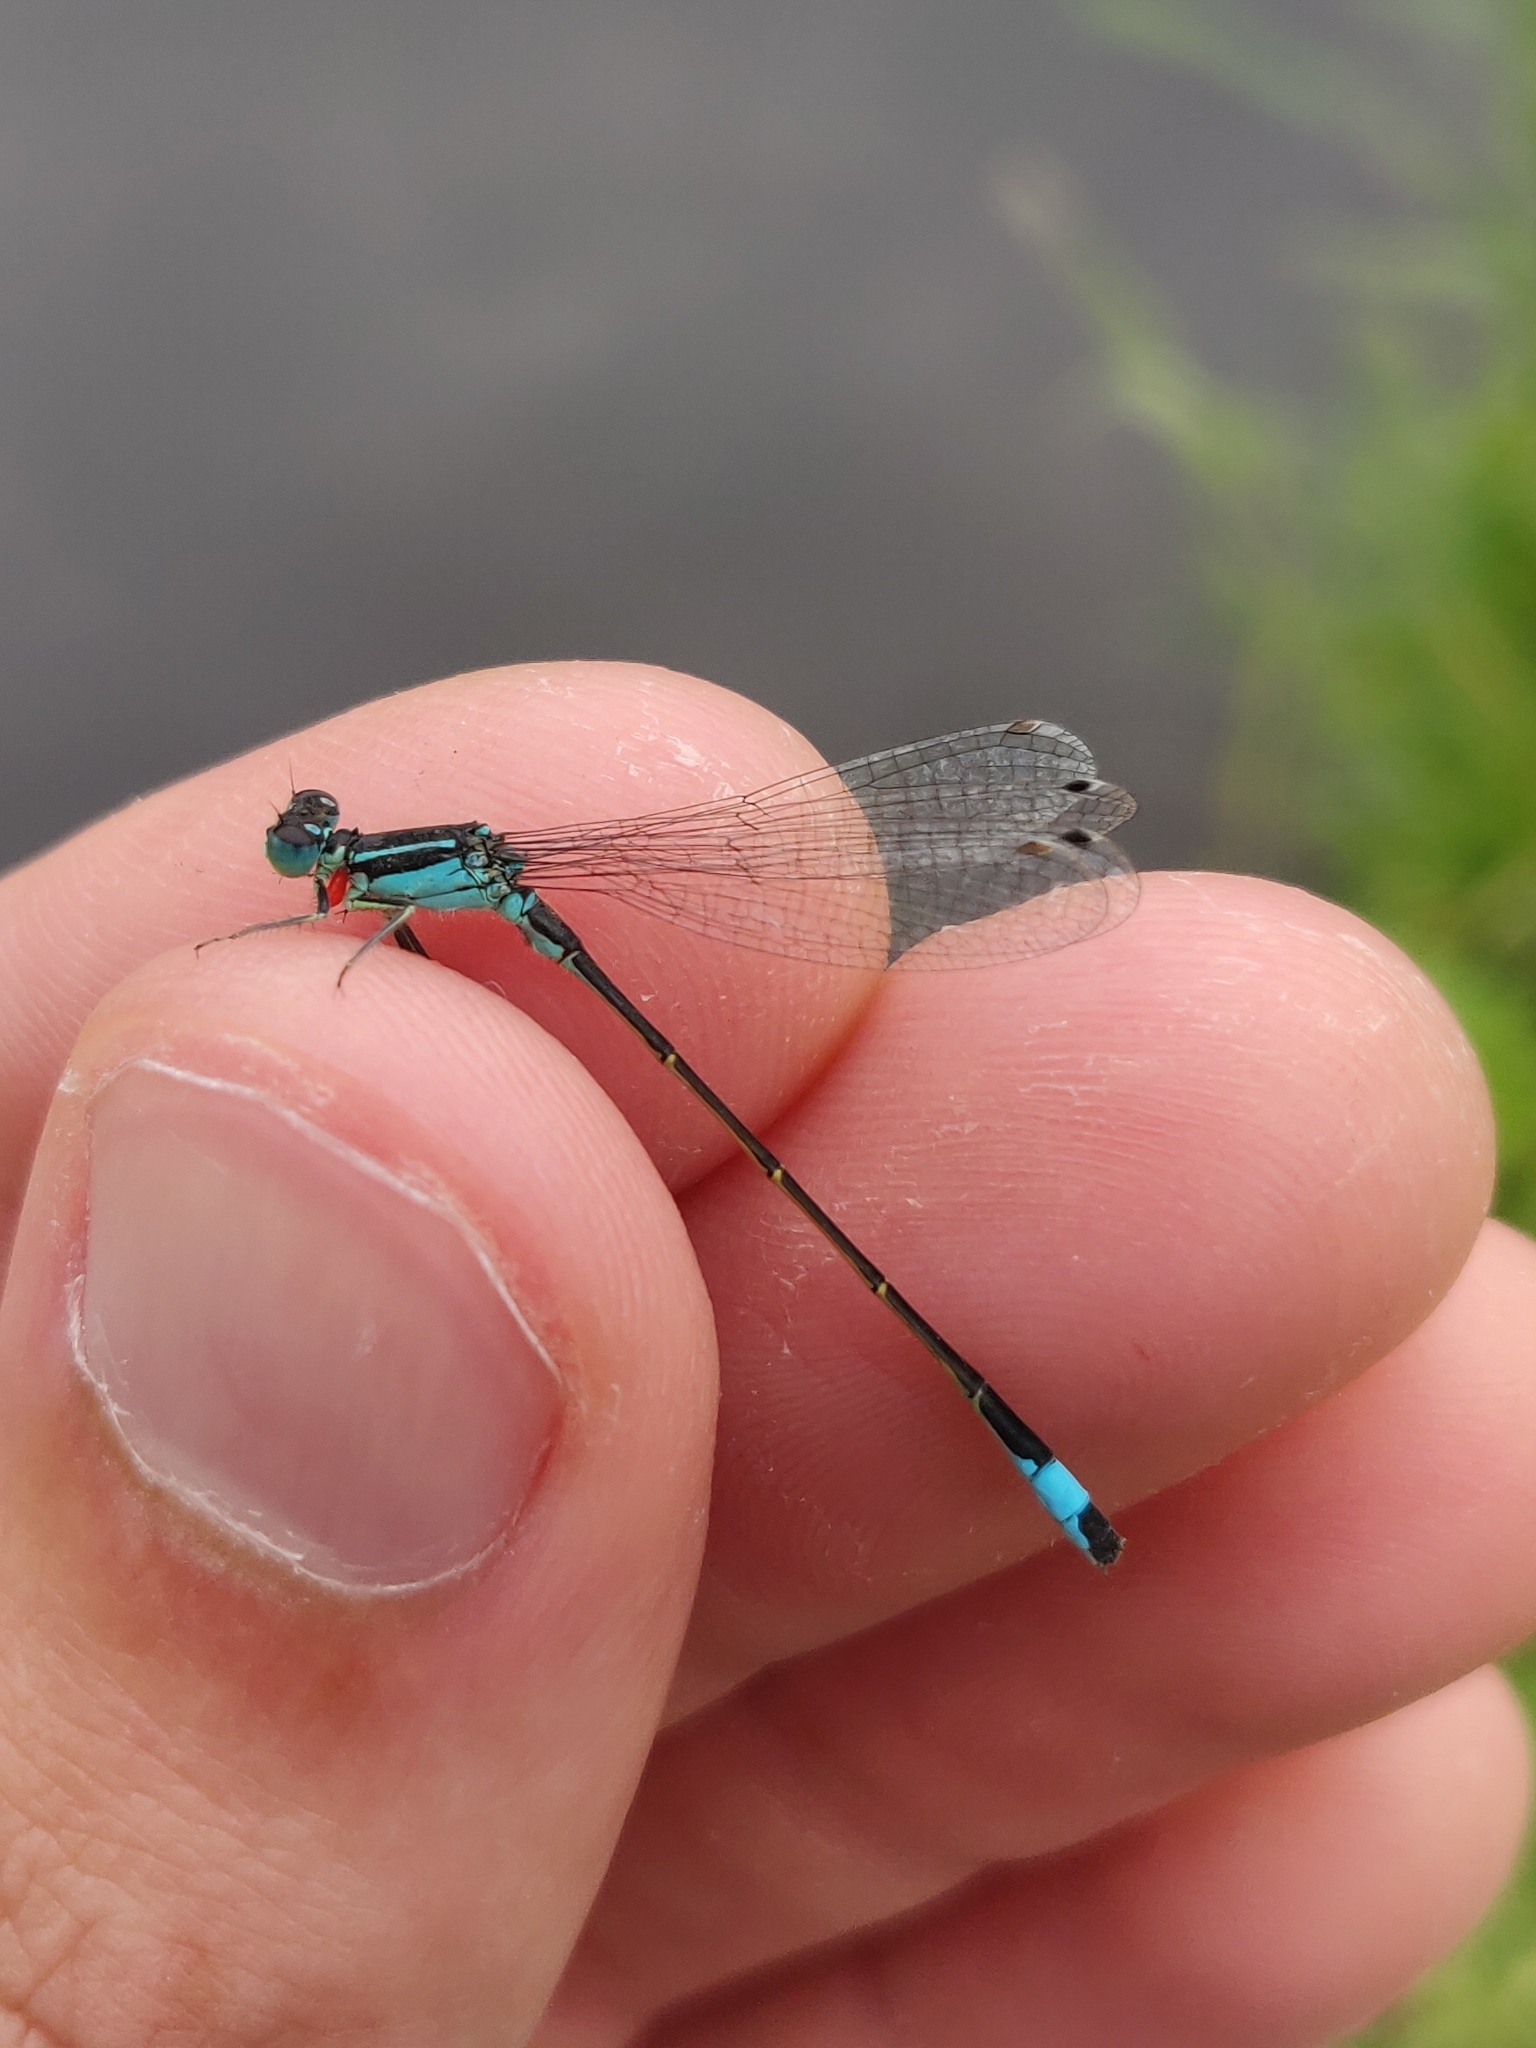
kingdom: Animalia
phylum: Arthropoda
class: Insecta
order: Odonata
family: Coenagrionidae
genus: Ischnura
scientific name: Ischnura elegans
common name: Blue-tailed damselfly
